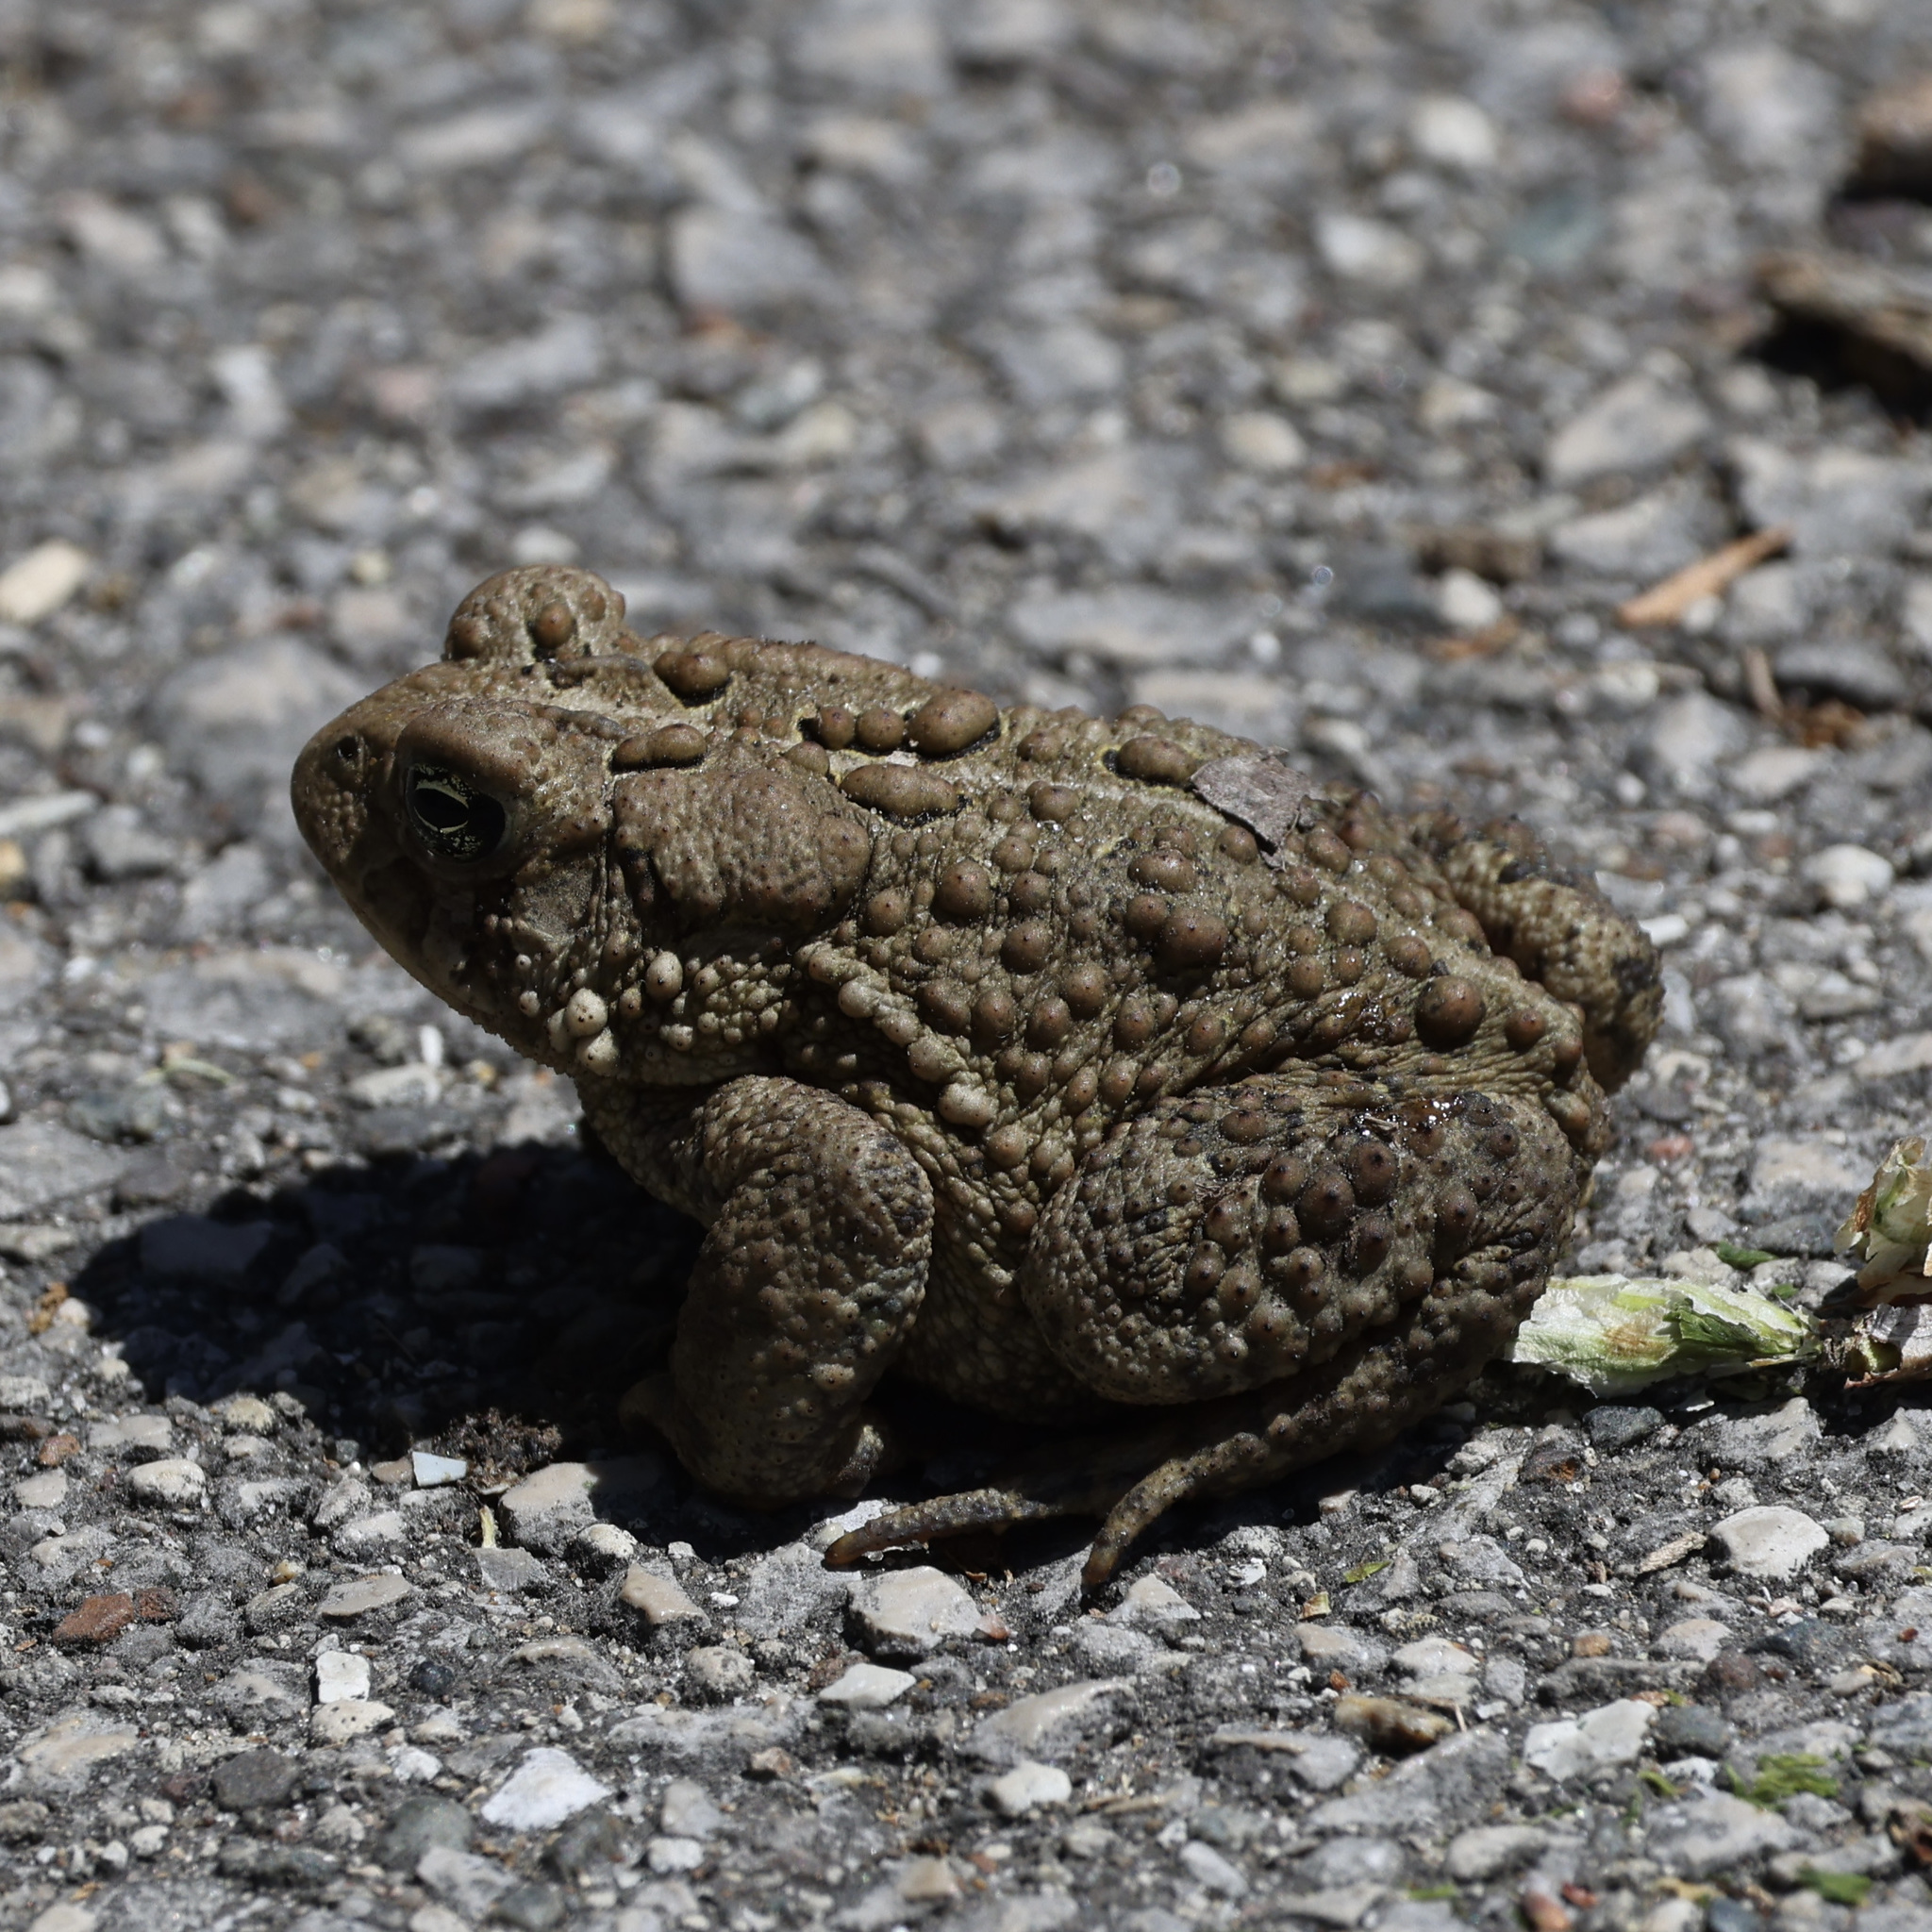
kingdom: Animalia
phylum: Chordata
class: Amphibia
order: Anura
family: Bufonidae
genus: Anaxyrus
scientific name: Anaxyrus americanus
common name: American toad
